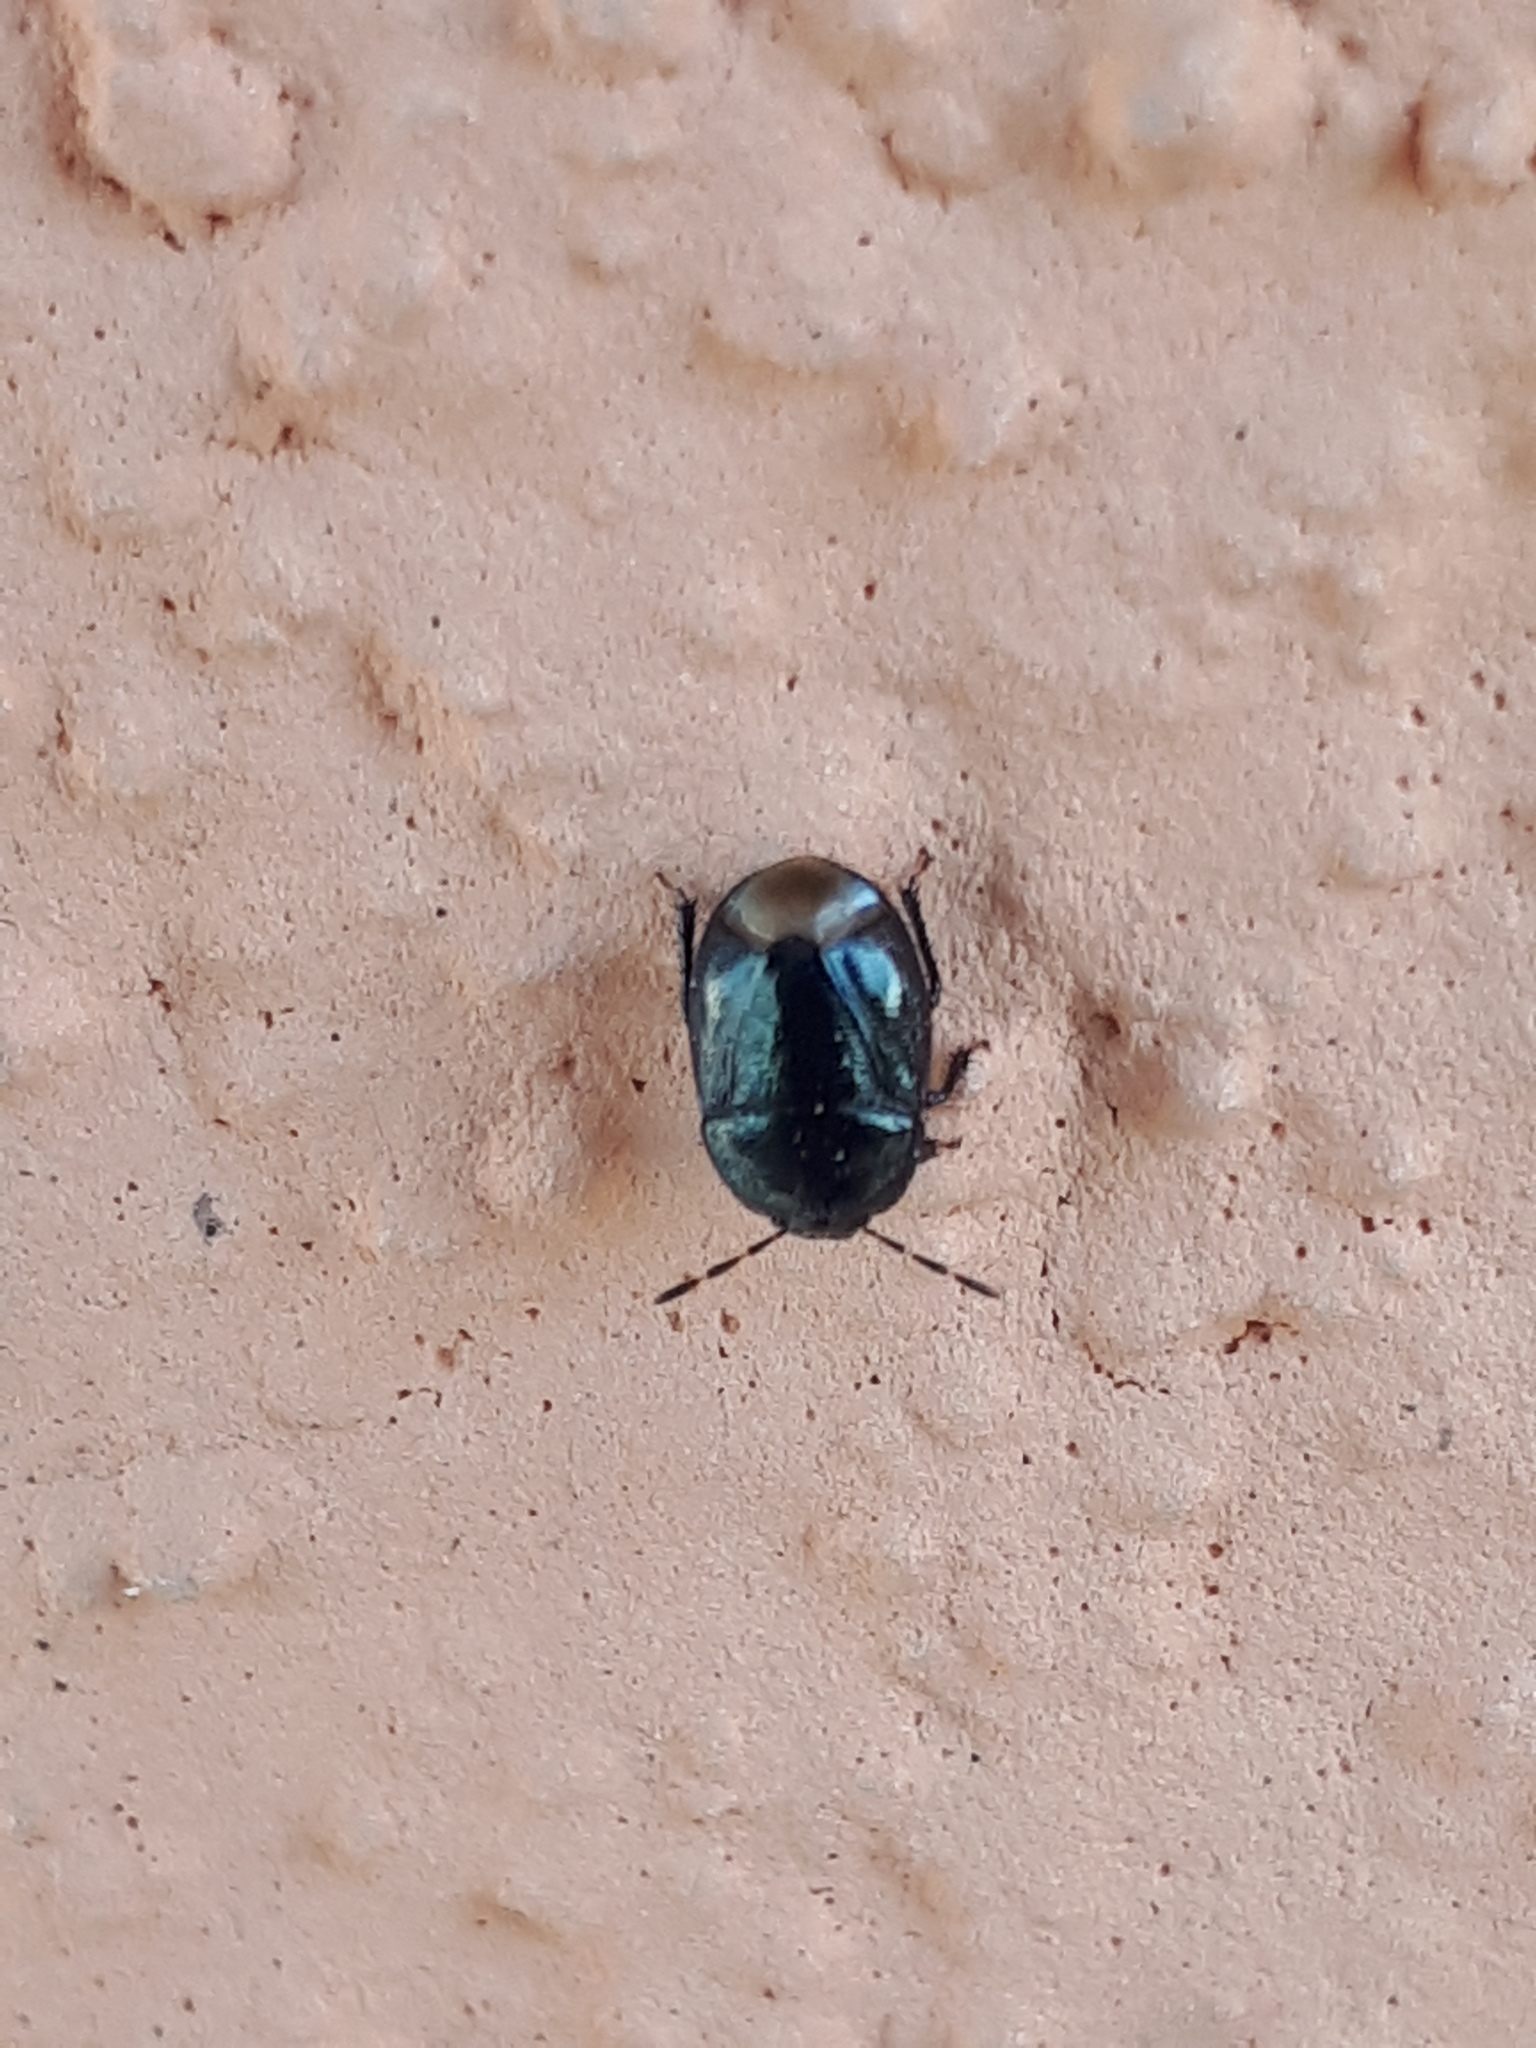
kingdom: Animalia
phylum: Arthropoda
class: Insecta
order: Hemiptera
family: Cydnidae
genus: Legnotus
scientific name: Legnotus picipes
